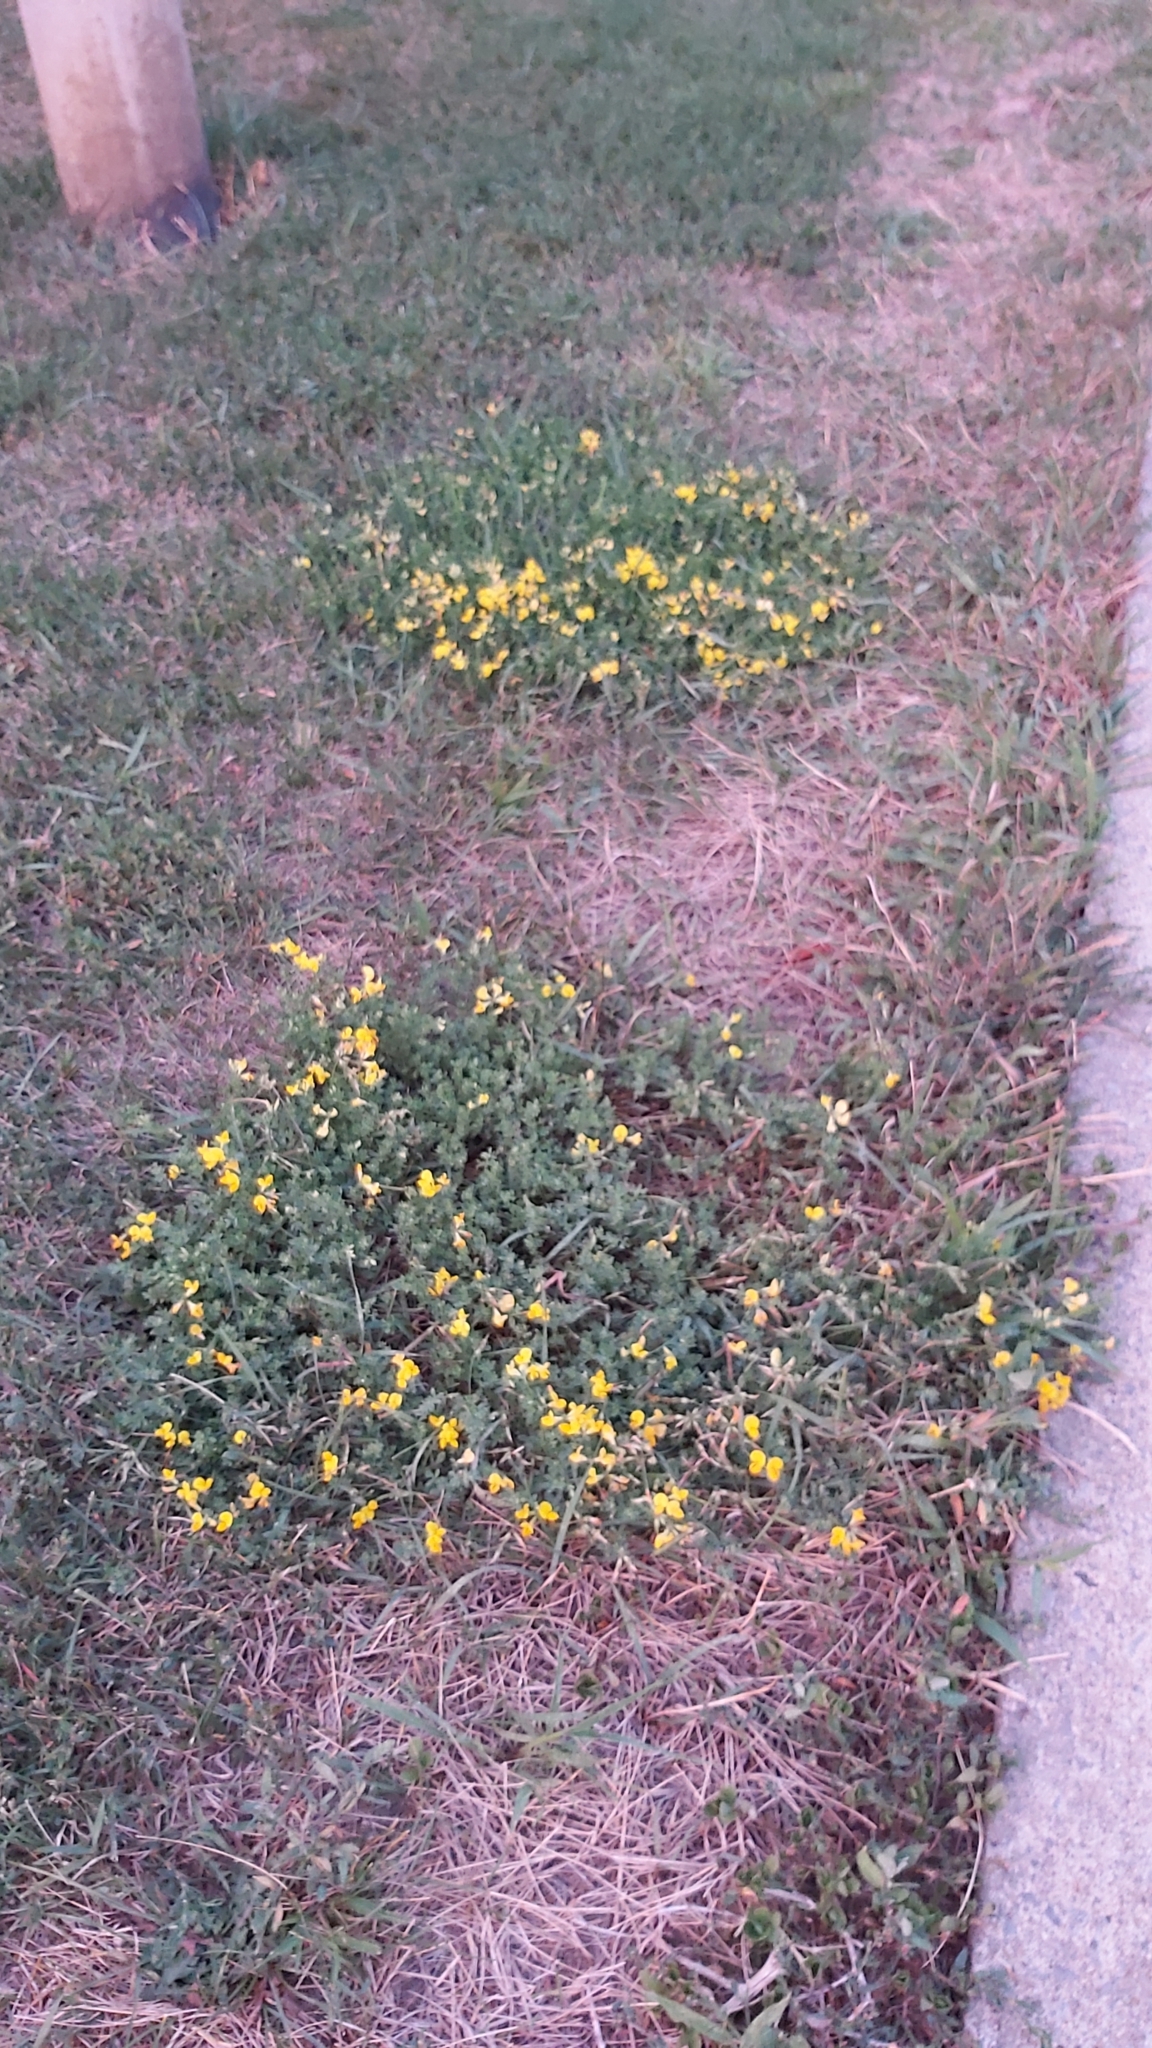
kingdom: Plantae
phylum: Tracheophyta
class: Magnoliopsida
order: Fabales
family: Fabaceae
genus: Lotus
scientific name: Lotus corniculatus
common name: Common bird's-foot-trefoil
